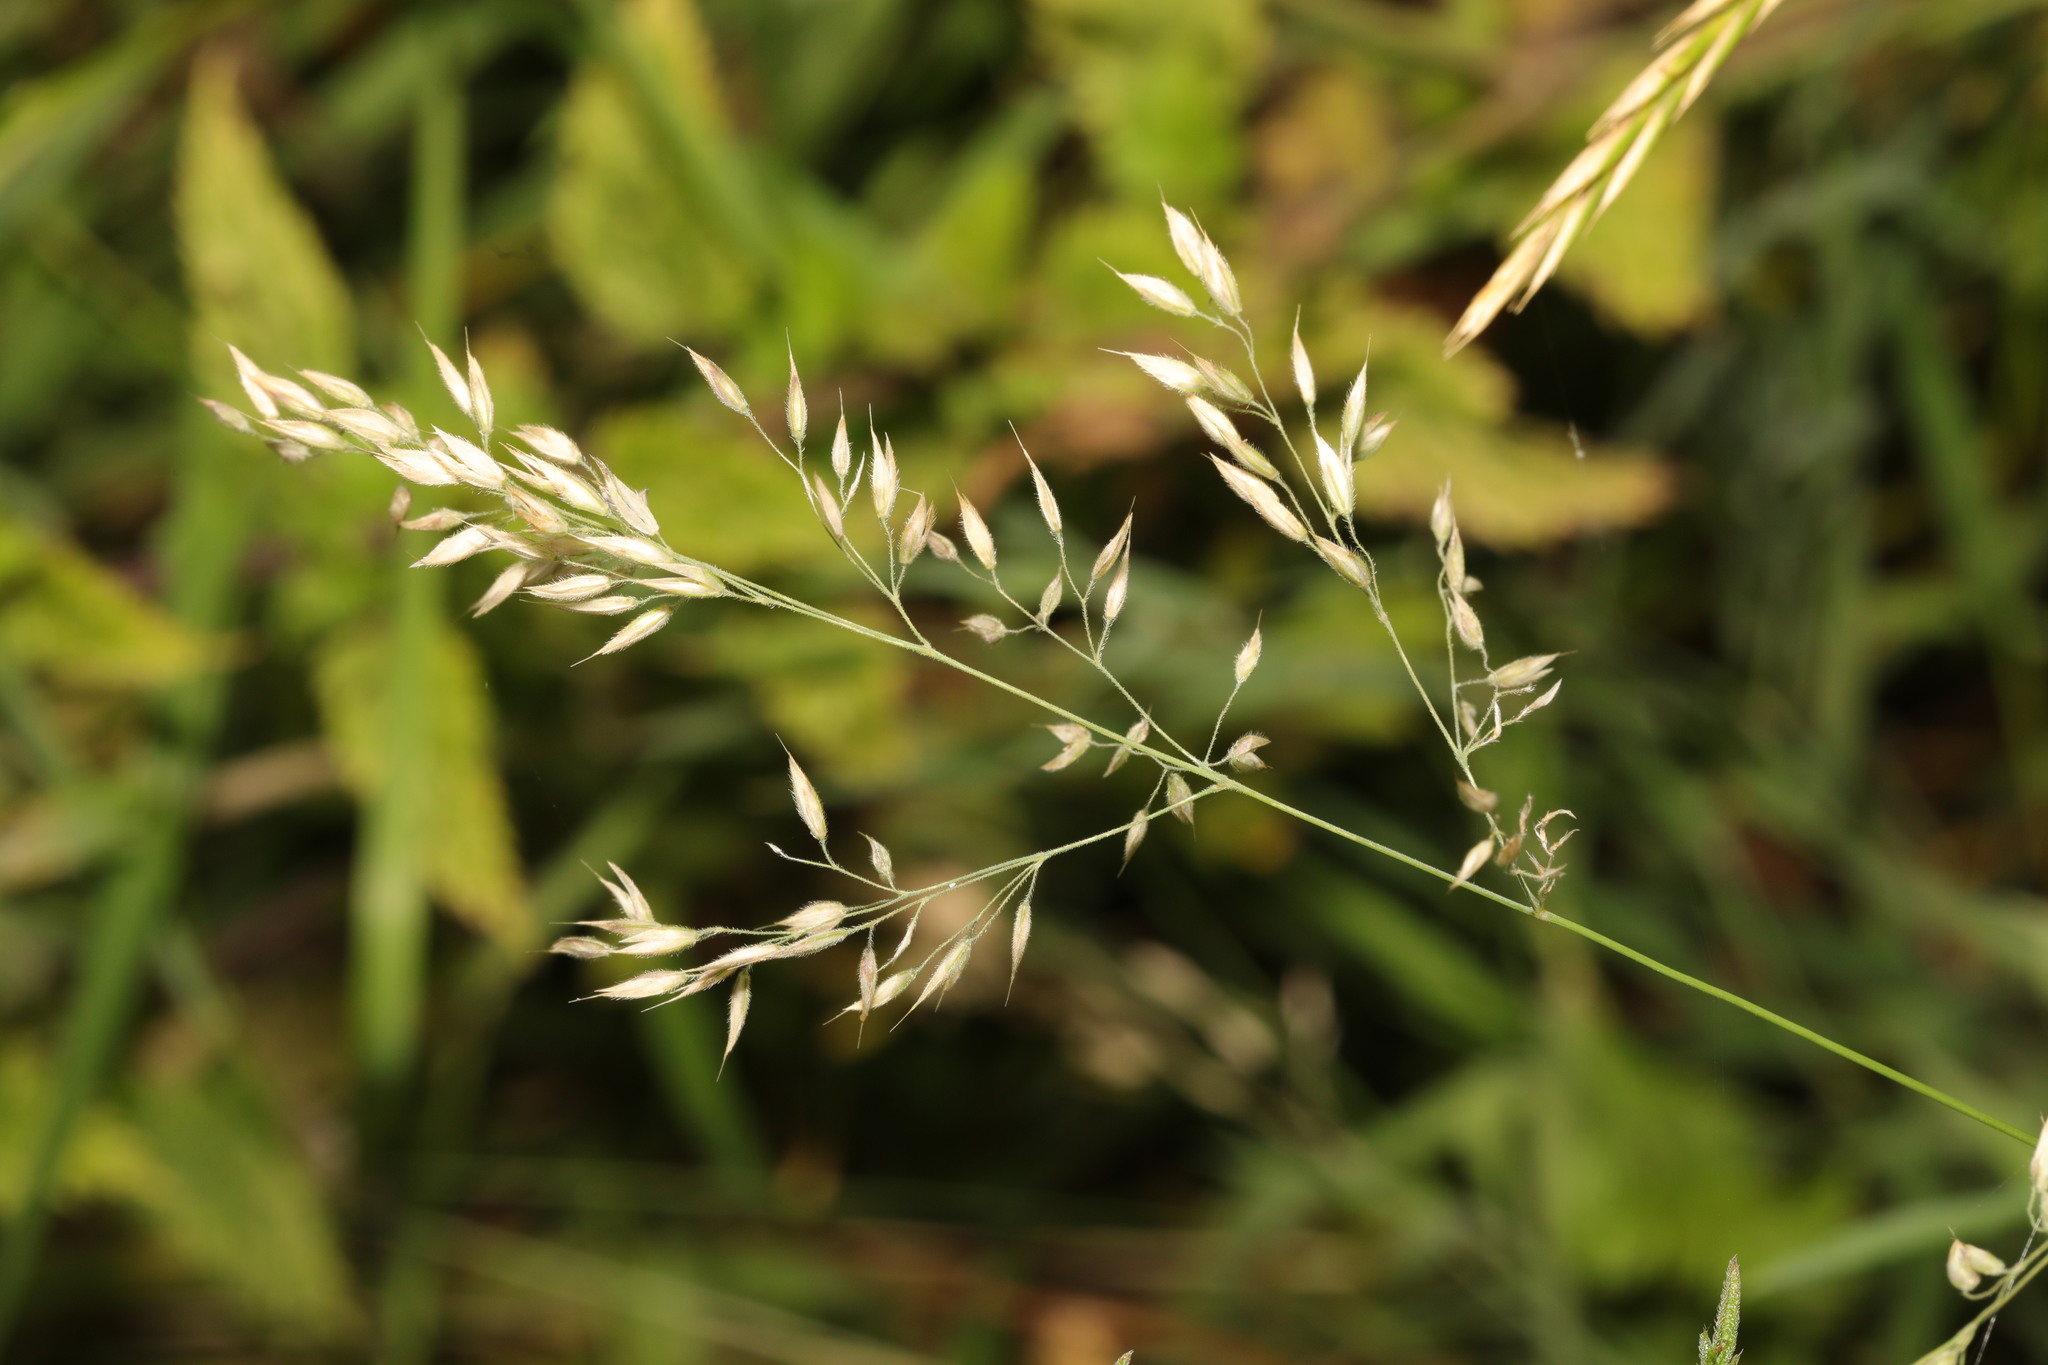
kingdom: Plantae
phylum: Tracheophyta
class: Liliopsida
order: Poales
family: Poaceae
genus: Holcus
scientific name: Holcus mollis
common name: Creeping velvetgrass
